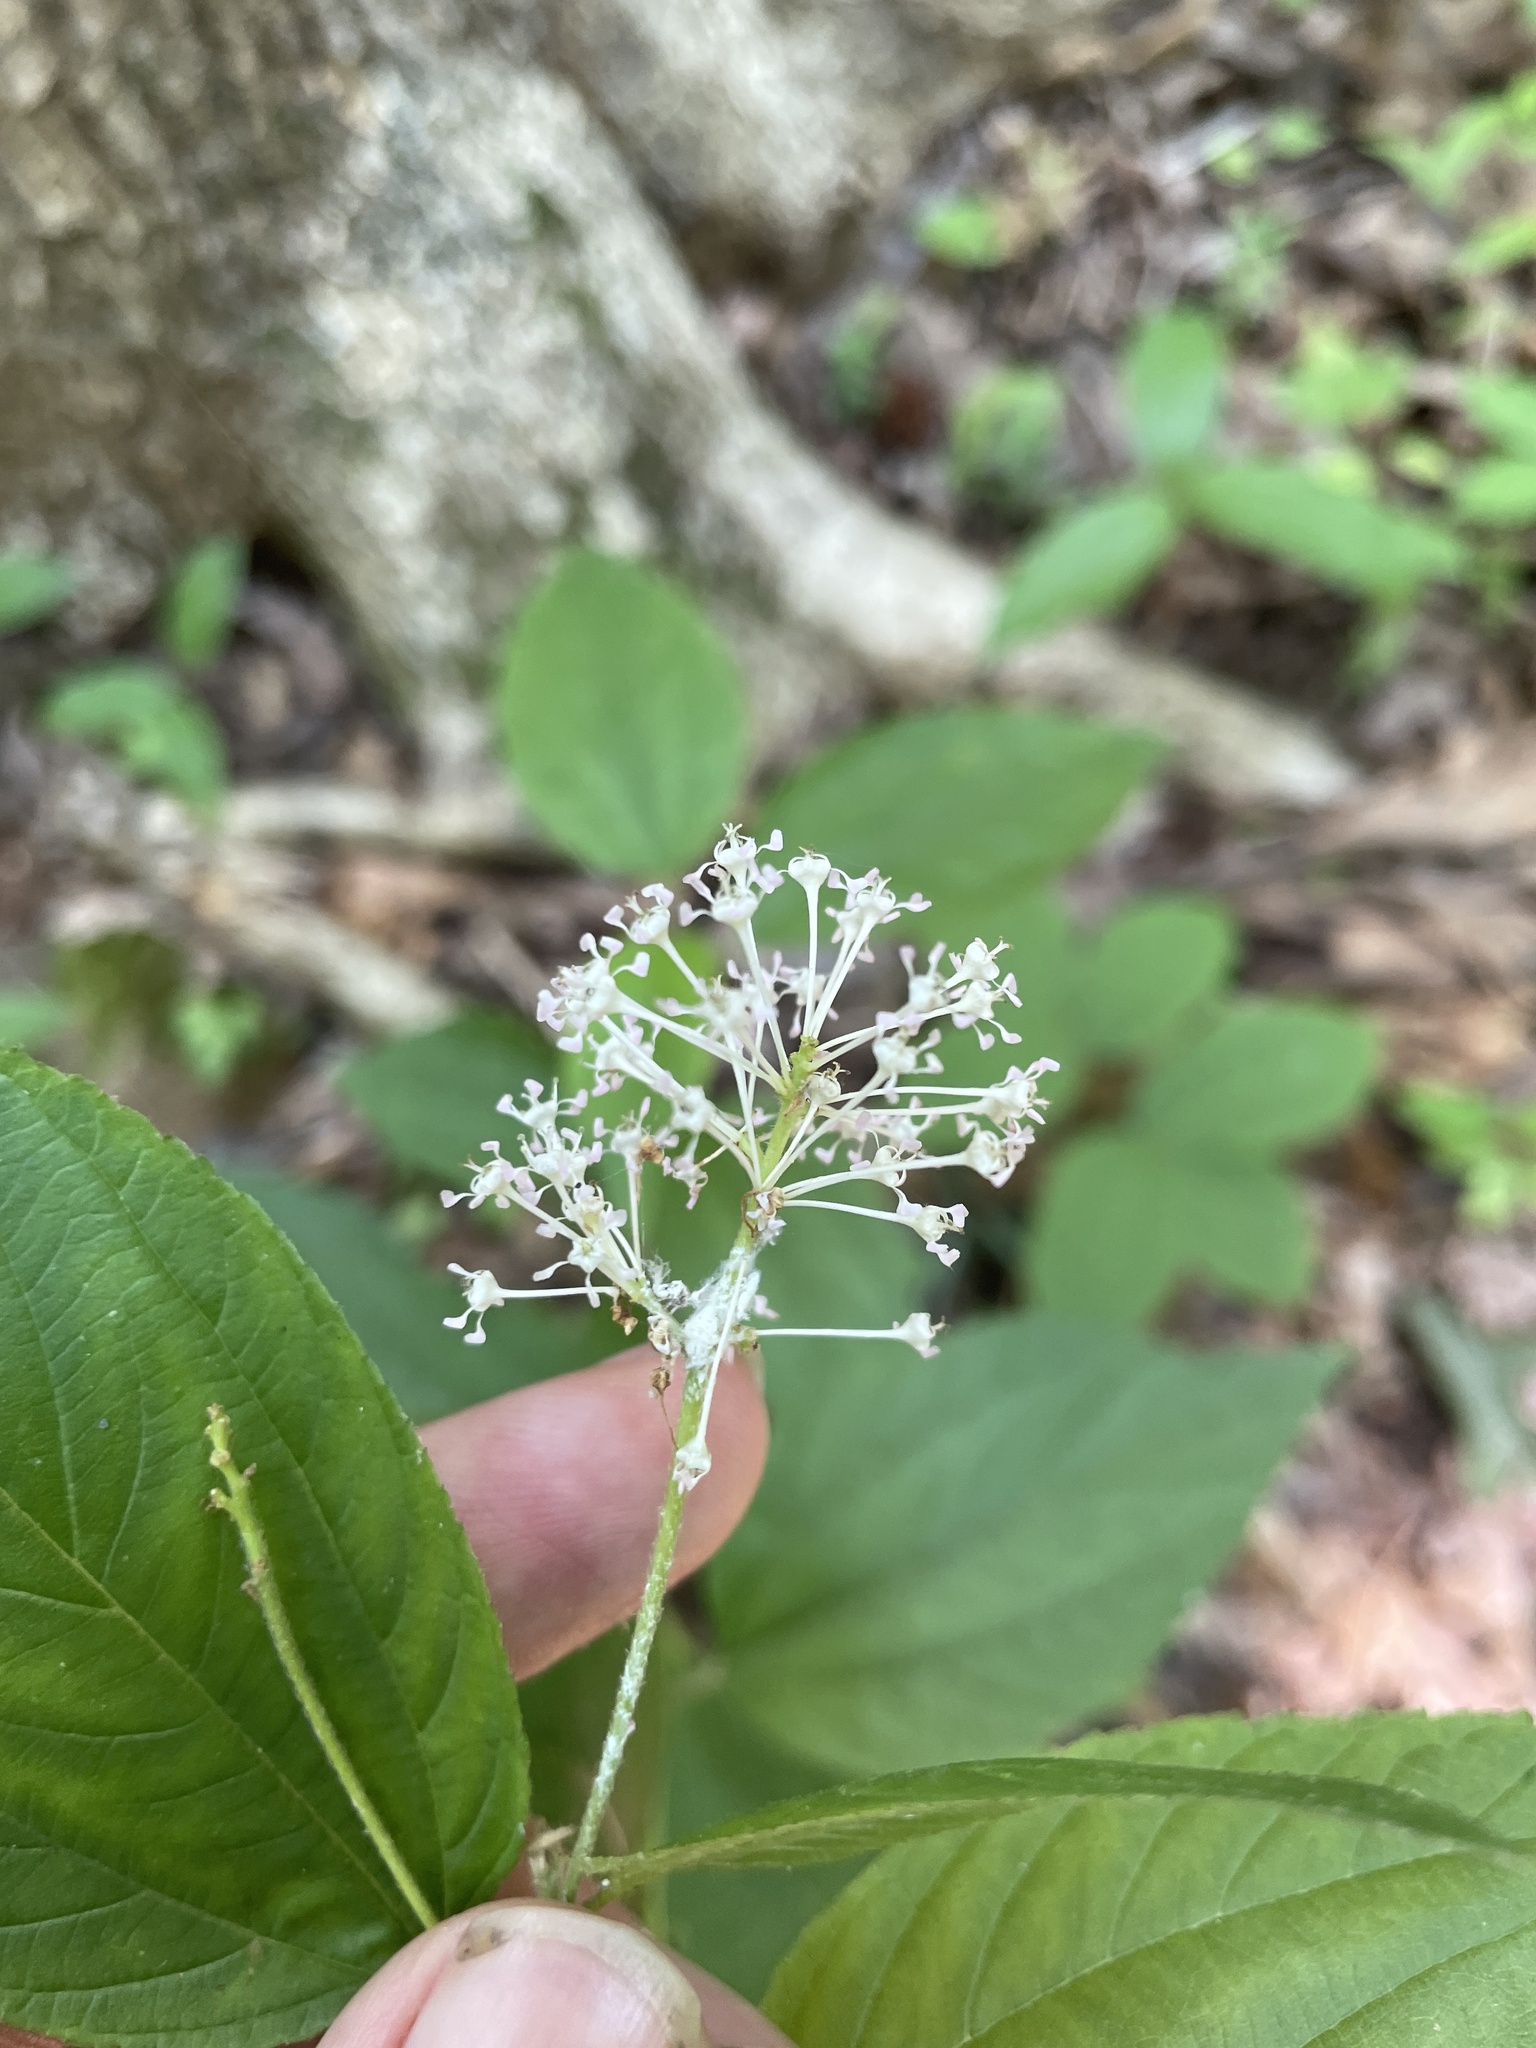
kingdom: Plantae
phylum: Tracheophyta
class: Magnoliopsida
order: Rosales
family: Rhamnaceae
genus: Ceanothus
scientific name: Ceanothus americanus
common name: Redroot
